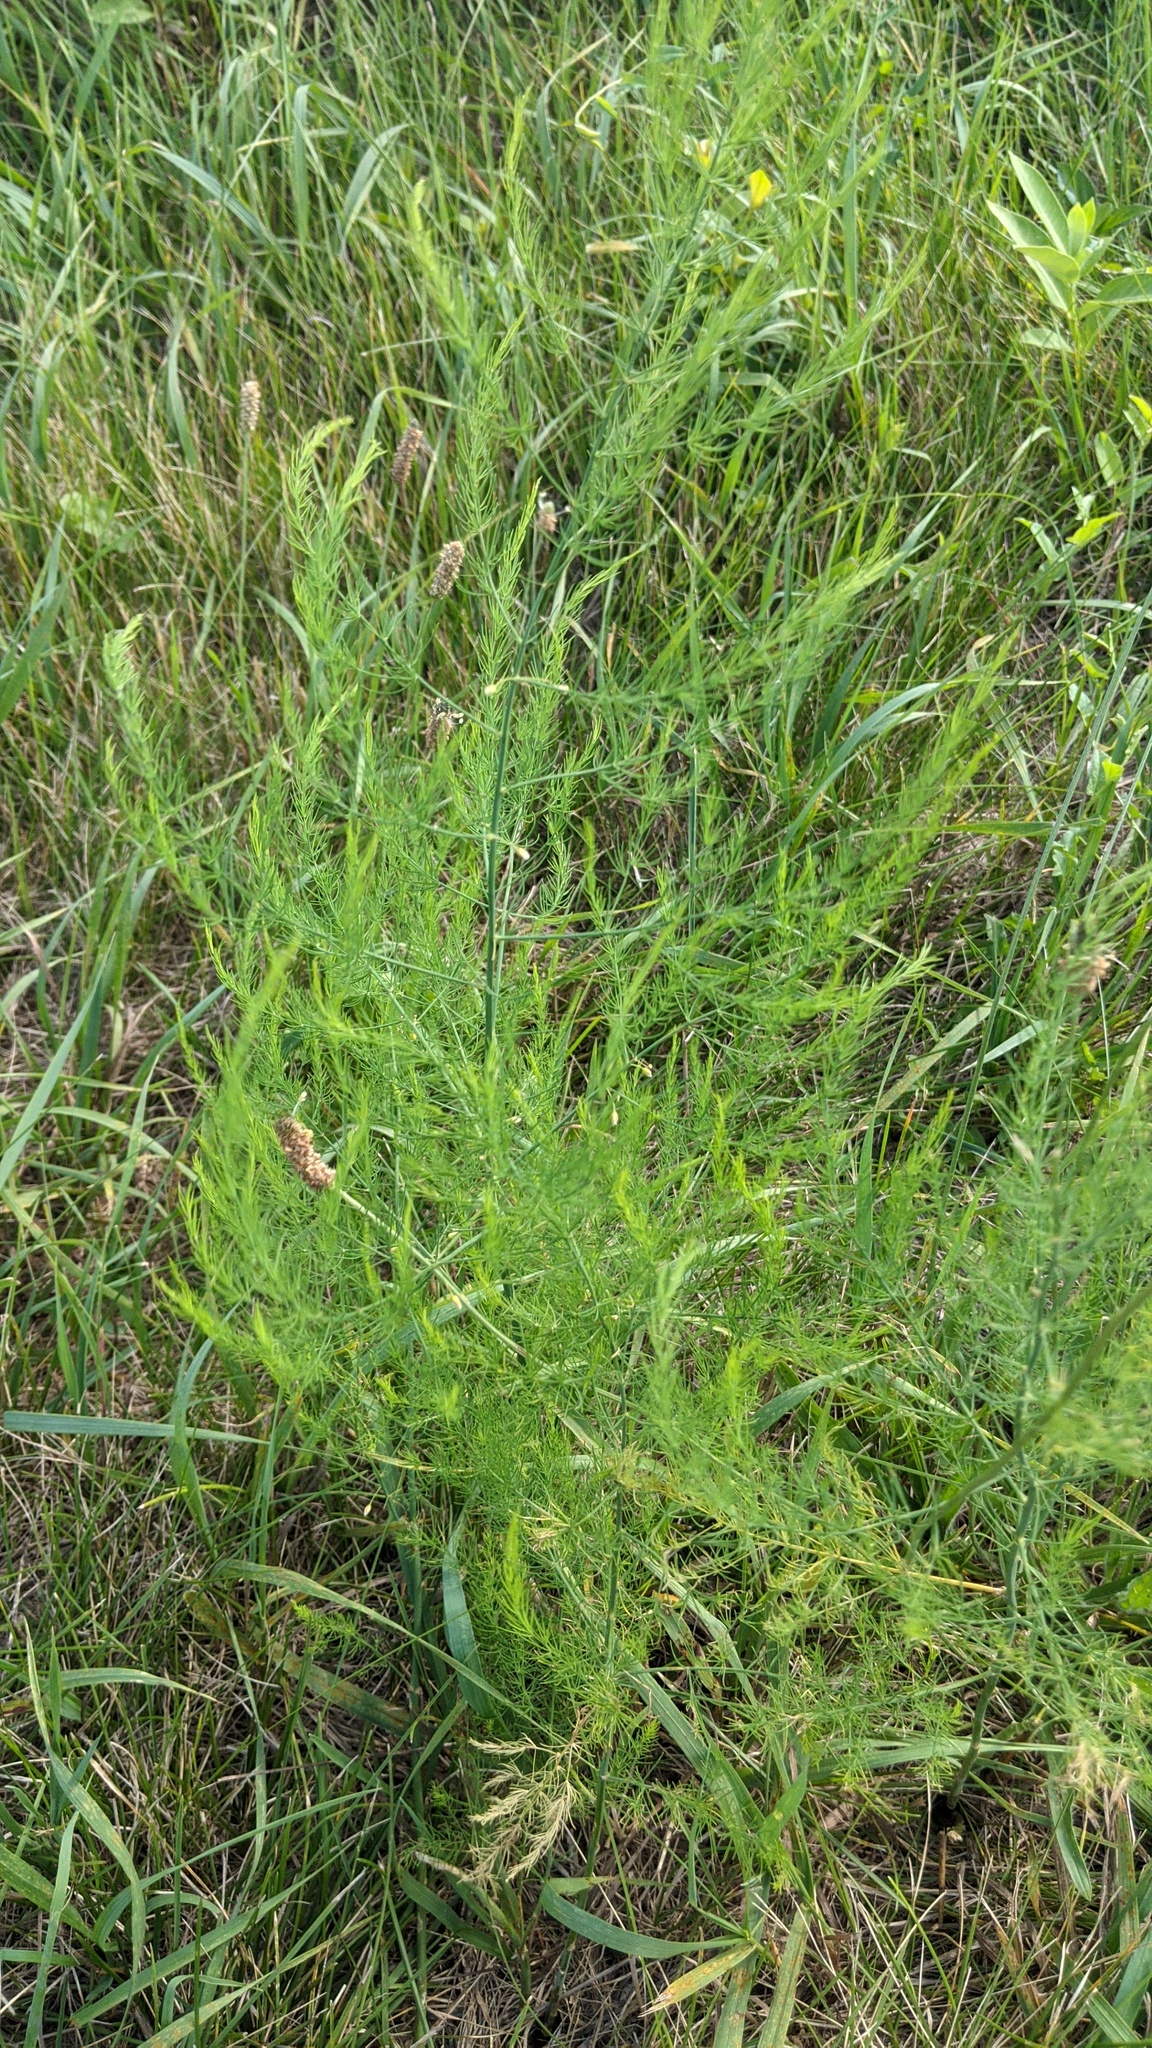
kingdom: Plantae
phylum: Tracheophyta
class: Liliopsida
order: Asparagales
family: Asparagaceae
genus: Asparagus
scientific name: Asparagus officinalis
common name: Garden asparagus
